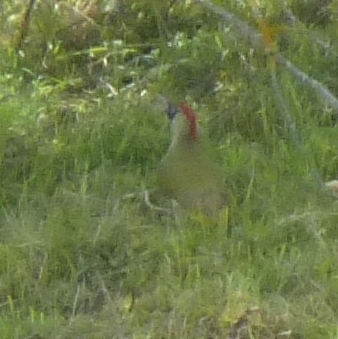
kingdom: Animalia
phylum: Chordata
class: Aves
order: Piciformes
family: Picidae
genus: Picus
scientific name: Picus viridis
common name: European green woodpecker
